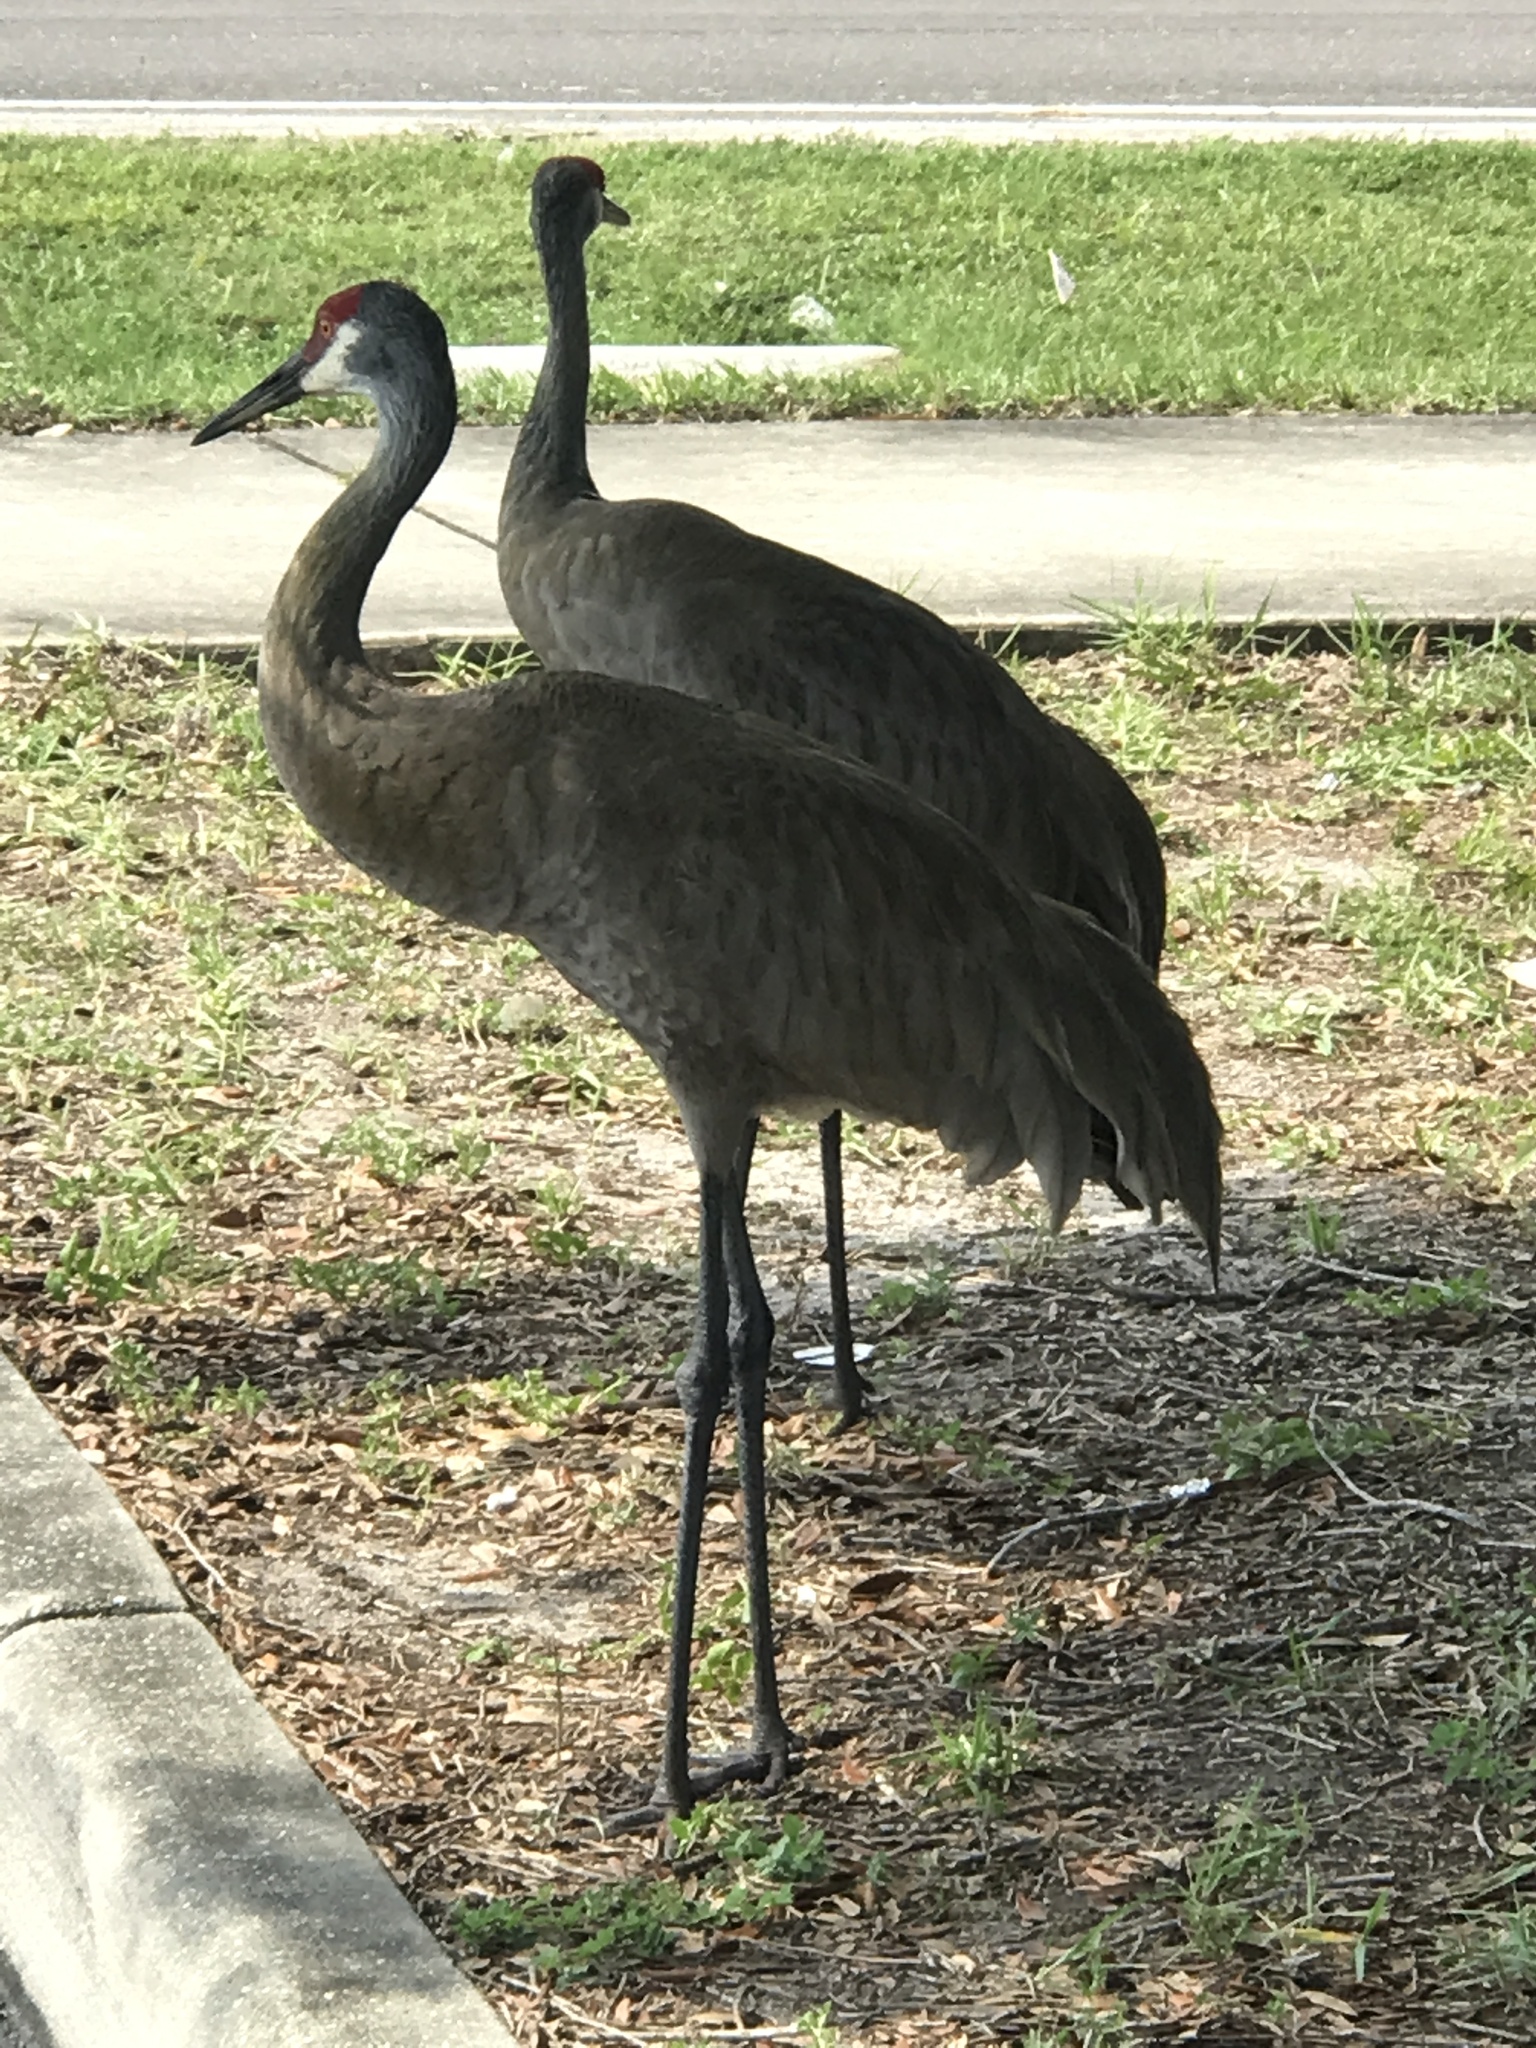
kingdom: Animalia
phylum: Chordata
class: Aves
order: Gruiformes
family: Gruidae
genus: Grus
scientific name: Grus canadensis
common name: Sandhill crane
